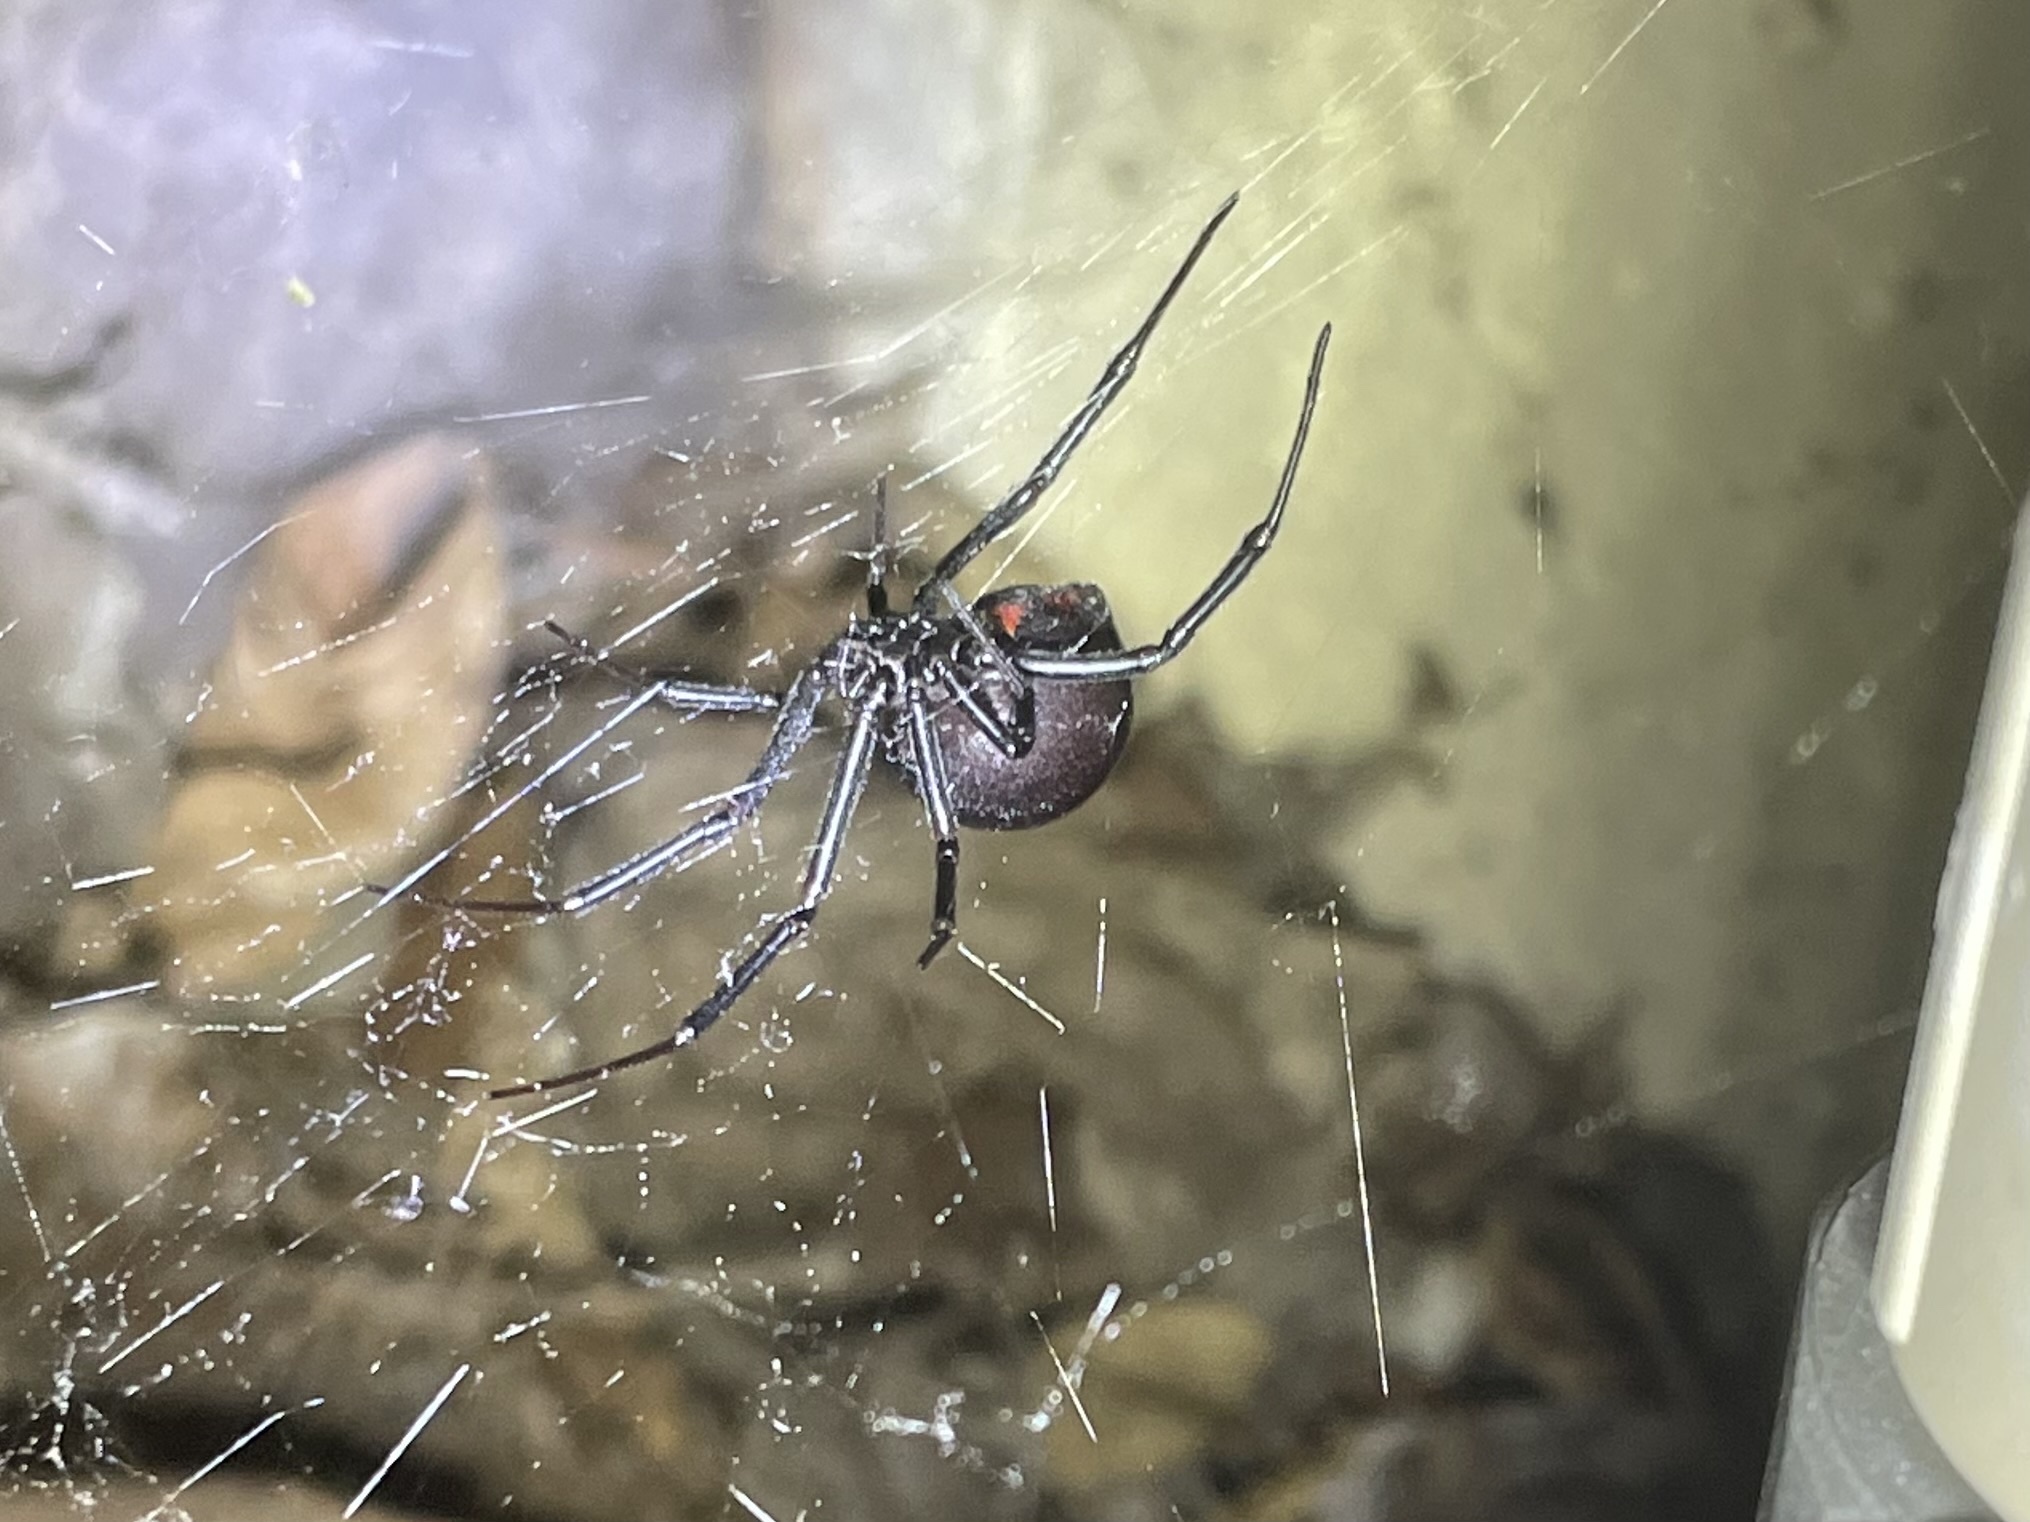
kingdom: Animalia
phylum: Arthropoda
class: Arachnida
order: Araneae
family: Theridiidae
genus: Latrodectus
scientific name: Latrodectus hesperus
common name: Western black widow
